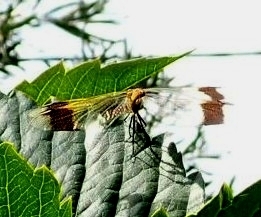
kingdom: Animalia
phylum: Arthropoda
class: Insecta
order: Odonata
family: Libellulidae
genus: Sympetrum
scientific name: Sympetrum pedemontanum
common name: Banded darter
